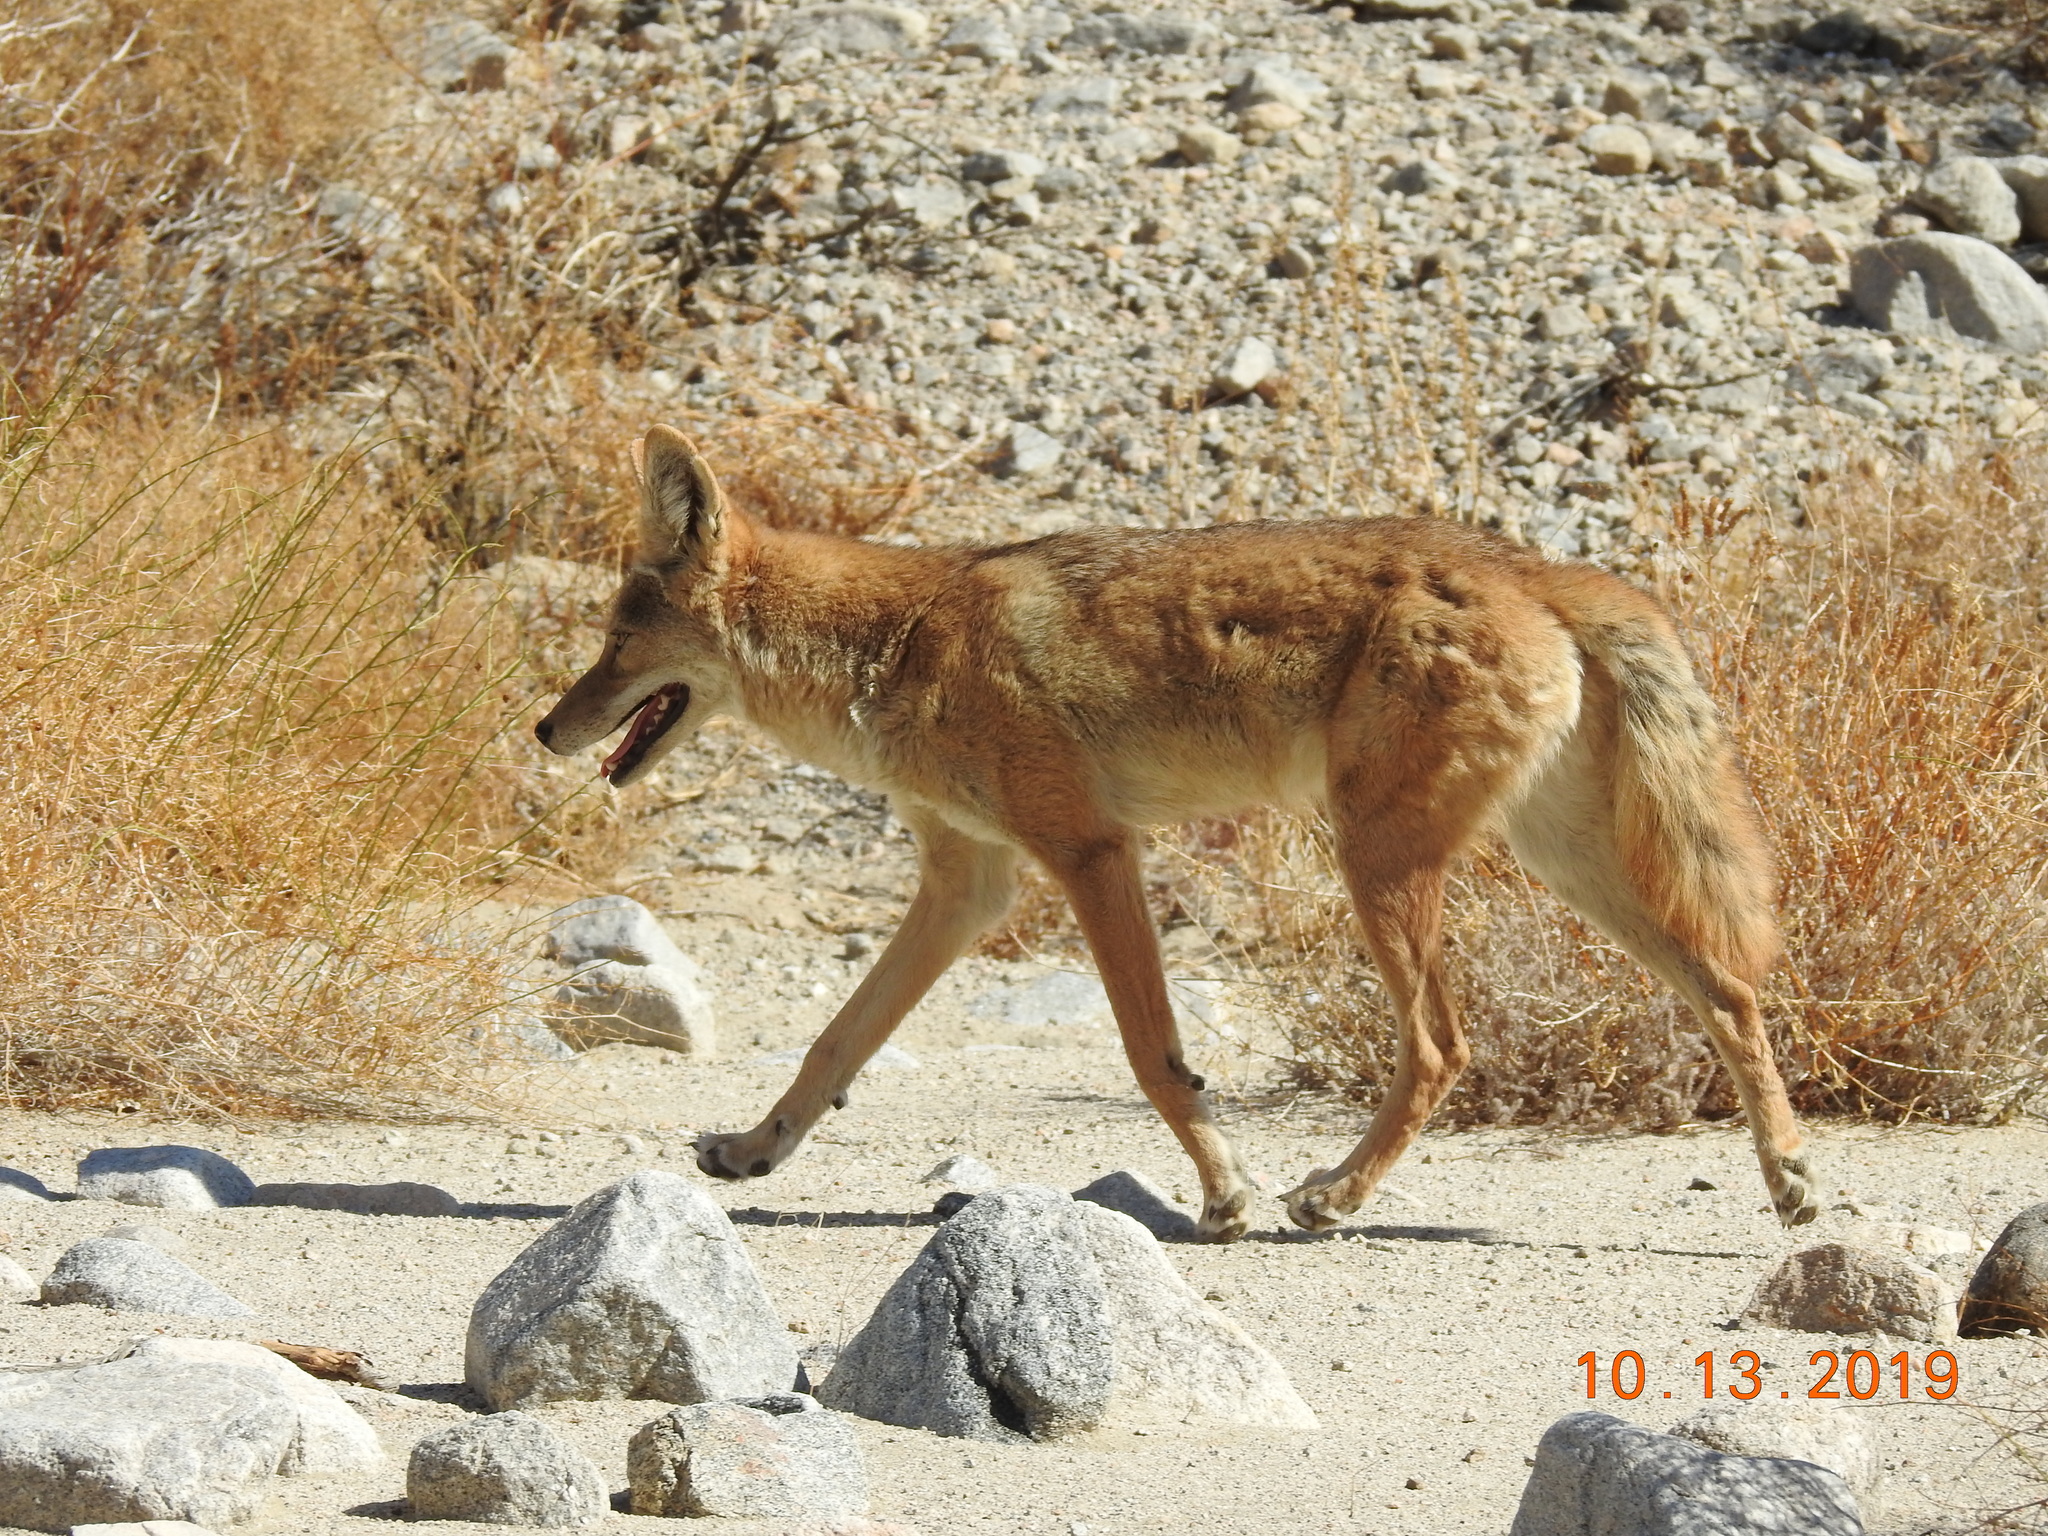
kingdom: Animalia
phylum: Chordata
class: Mammalia
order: Carnivora
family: Canidae
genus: Canis
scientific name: Canis latrans
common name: Coyote
